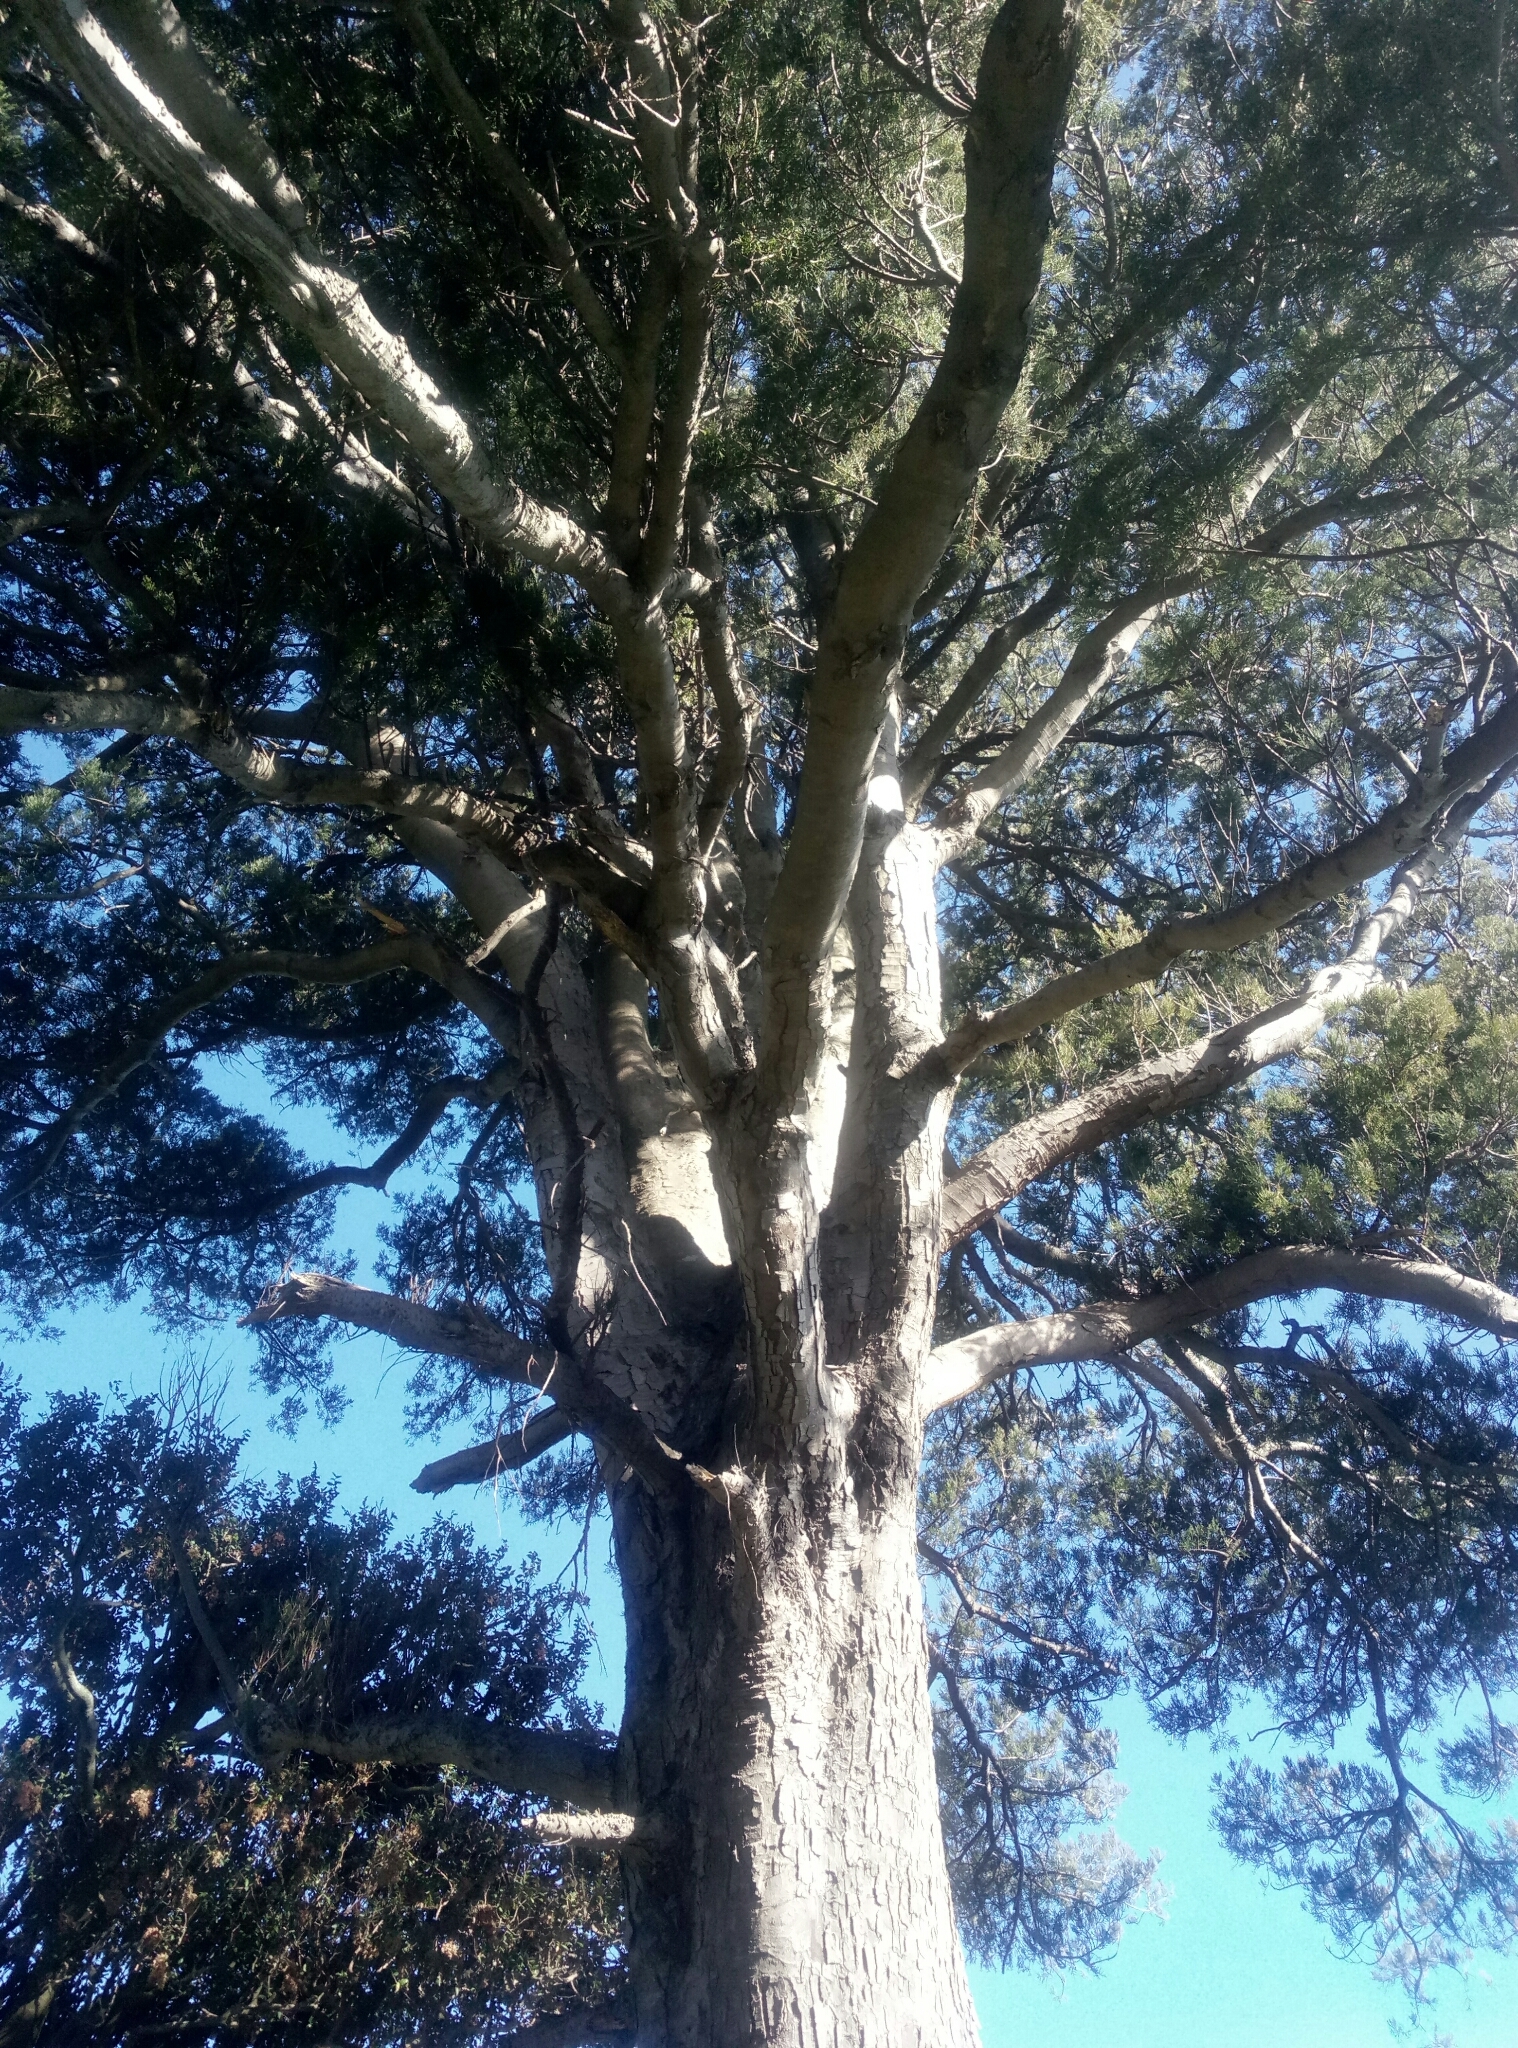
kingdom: Plantae
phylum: Tracheophyta
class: Pinopsida
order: Pinales
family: Podocarpaceae
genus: Dacrycarpus
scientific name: Dacrycarpus dacrydioides
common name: White pine
